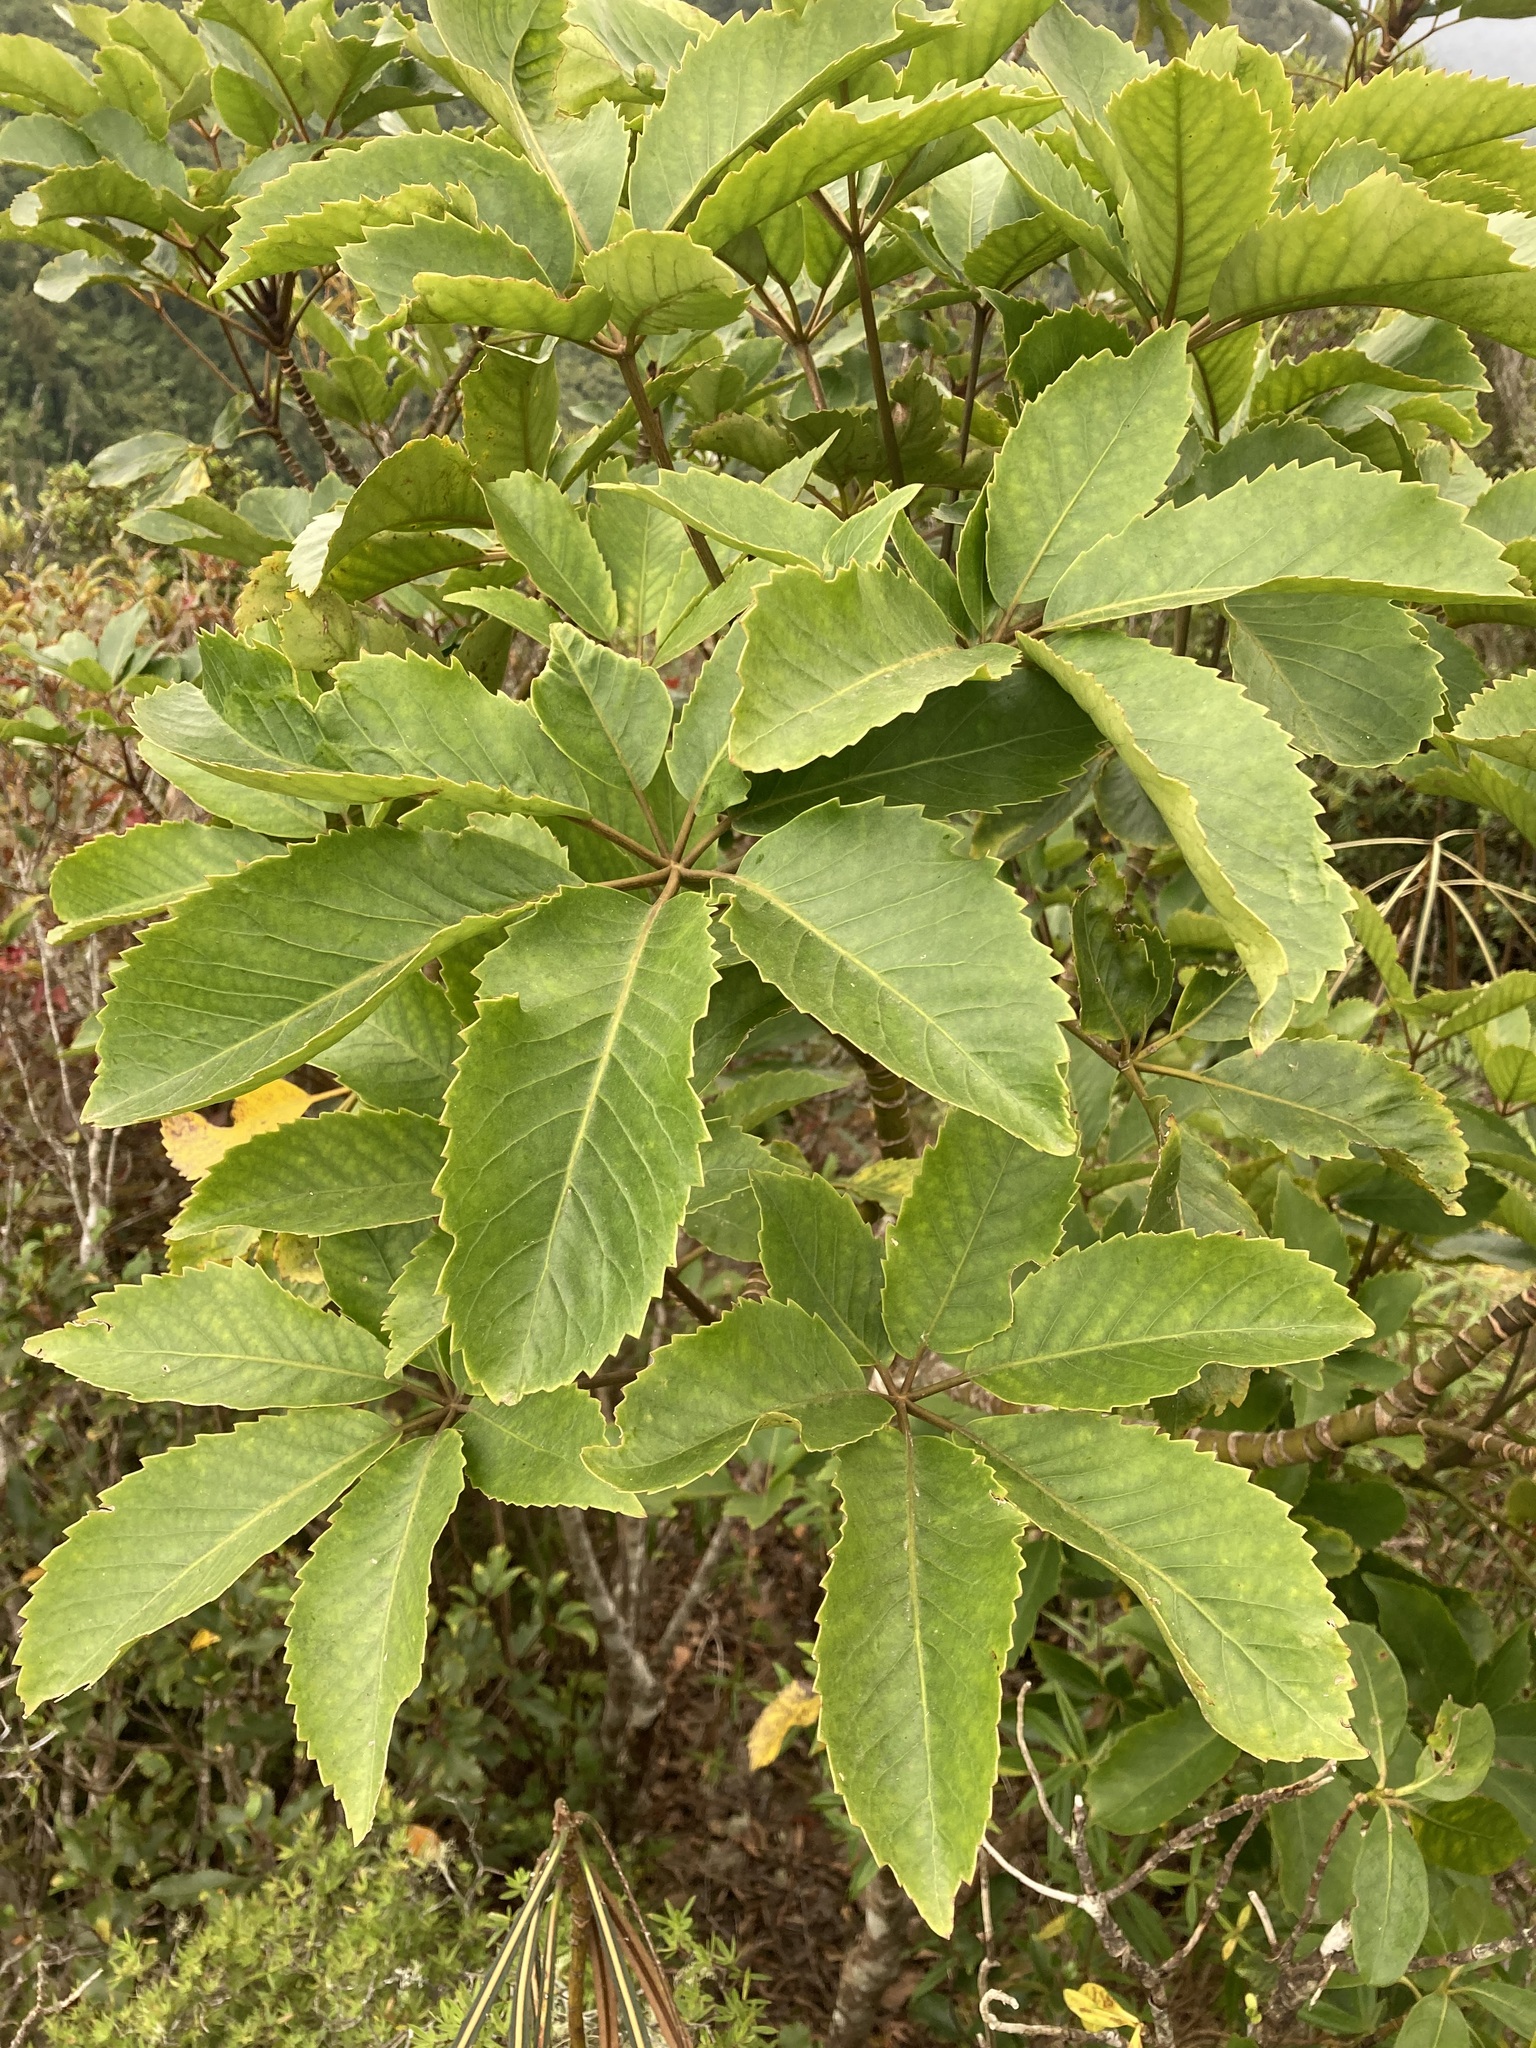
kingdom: Plantae
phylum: Tracheophyta
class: Magnoliopsida
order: Apiales
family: Araliaceae
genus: Neopanax
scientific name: Neopanax arboreus
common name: Five-fingers
